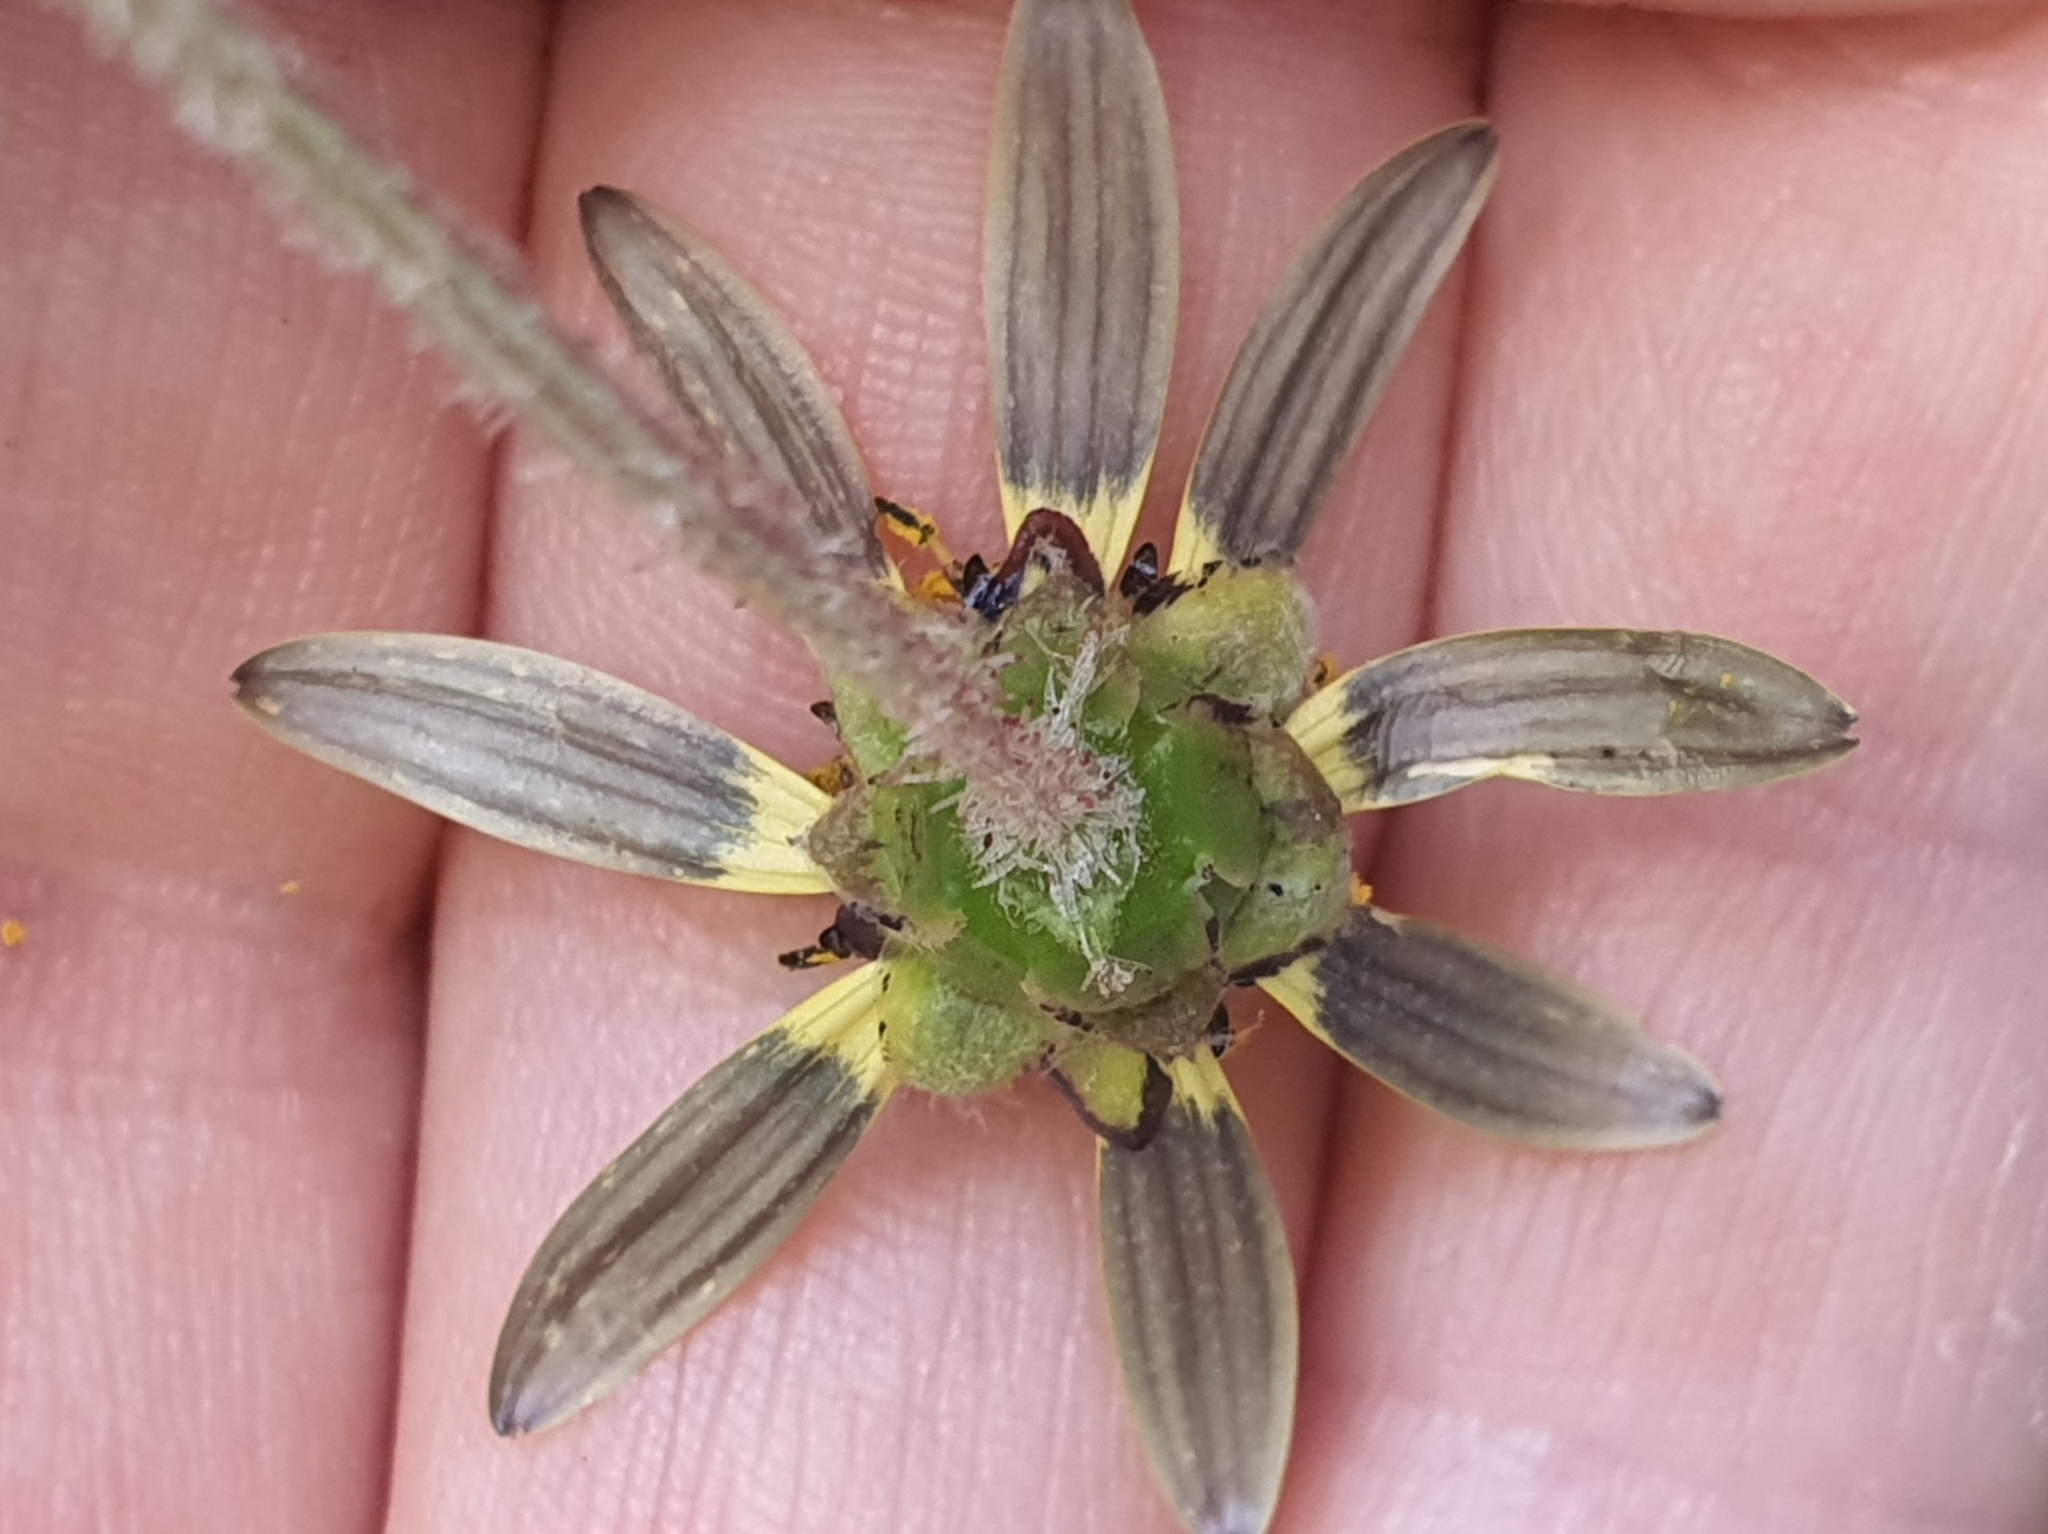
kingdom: Plantae
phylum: Tracheophyta
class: Magnoliopsida
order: Asterales
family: Asteraceae
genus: Arctotheca
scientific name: Arctotheca calendula
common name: Capeweed
